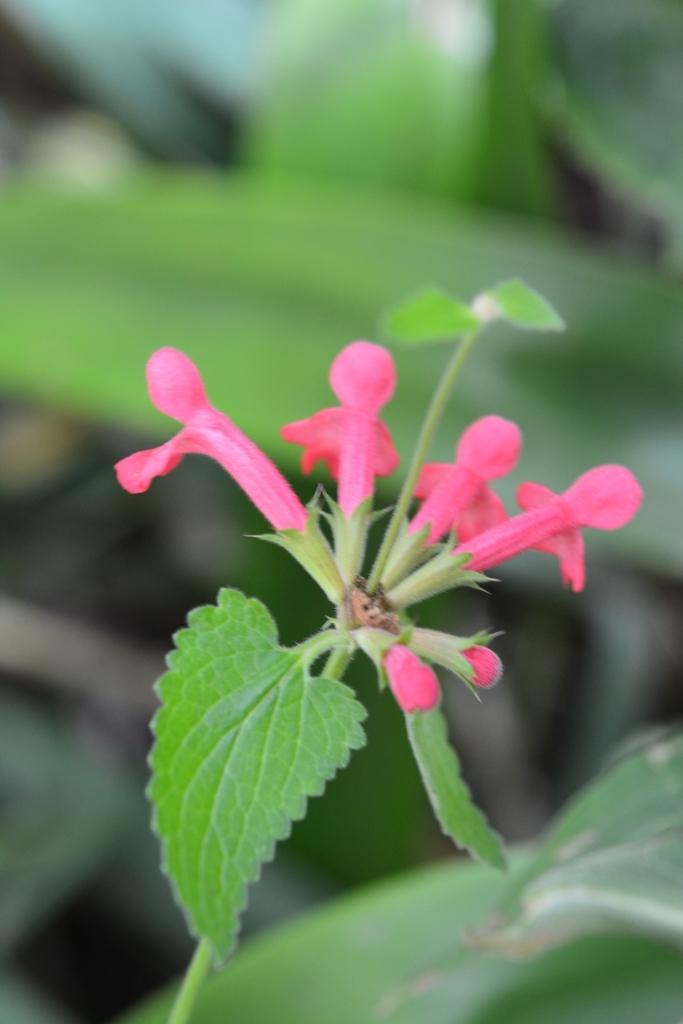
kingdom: Plantae
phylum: Tracheophyta
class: Magnoliopsida
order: Lamiales
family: Lamiaceae
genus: Stachys
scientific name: Stachys coccinea
